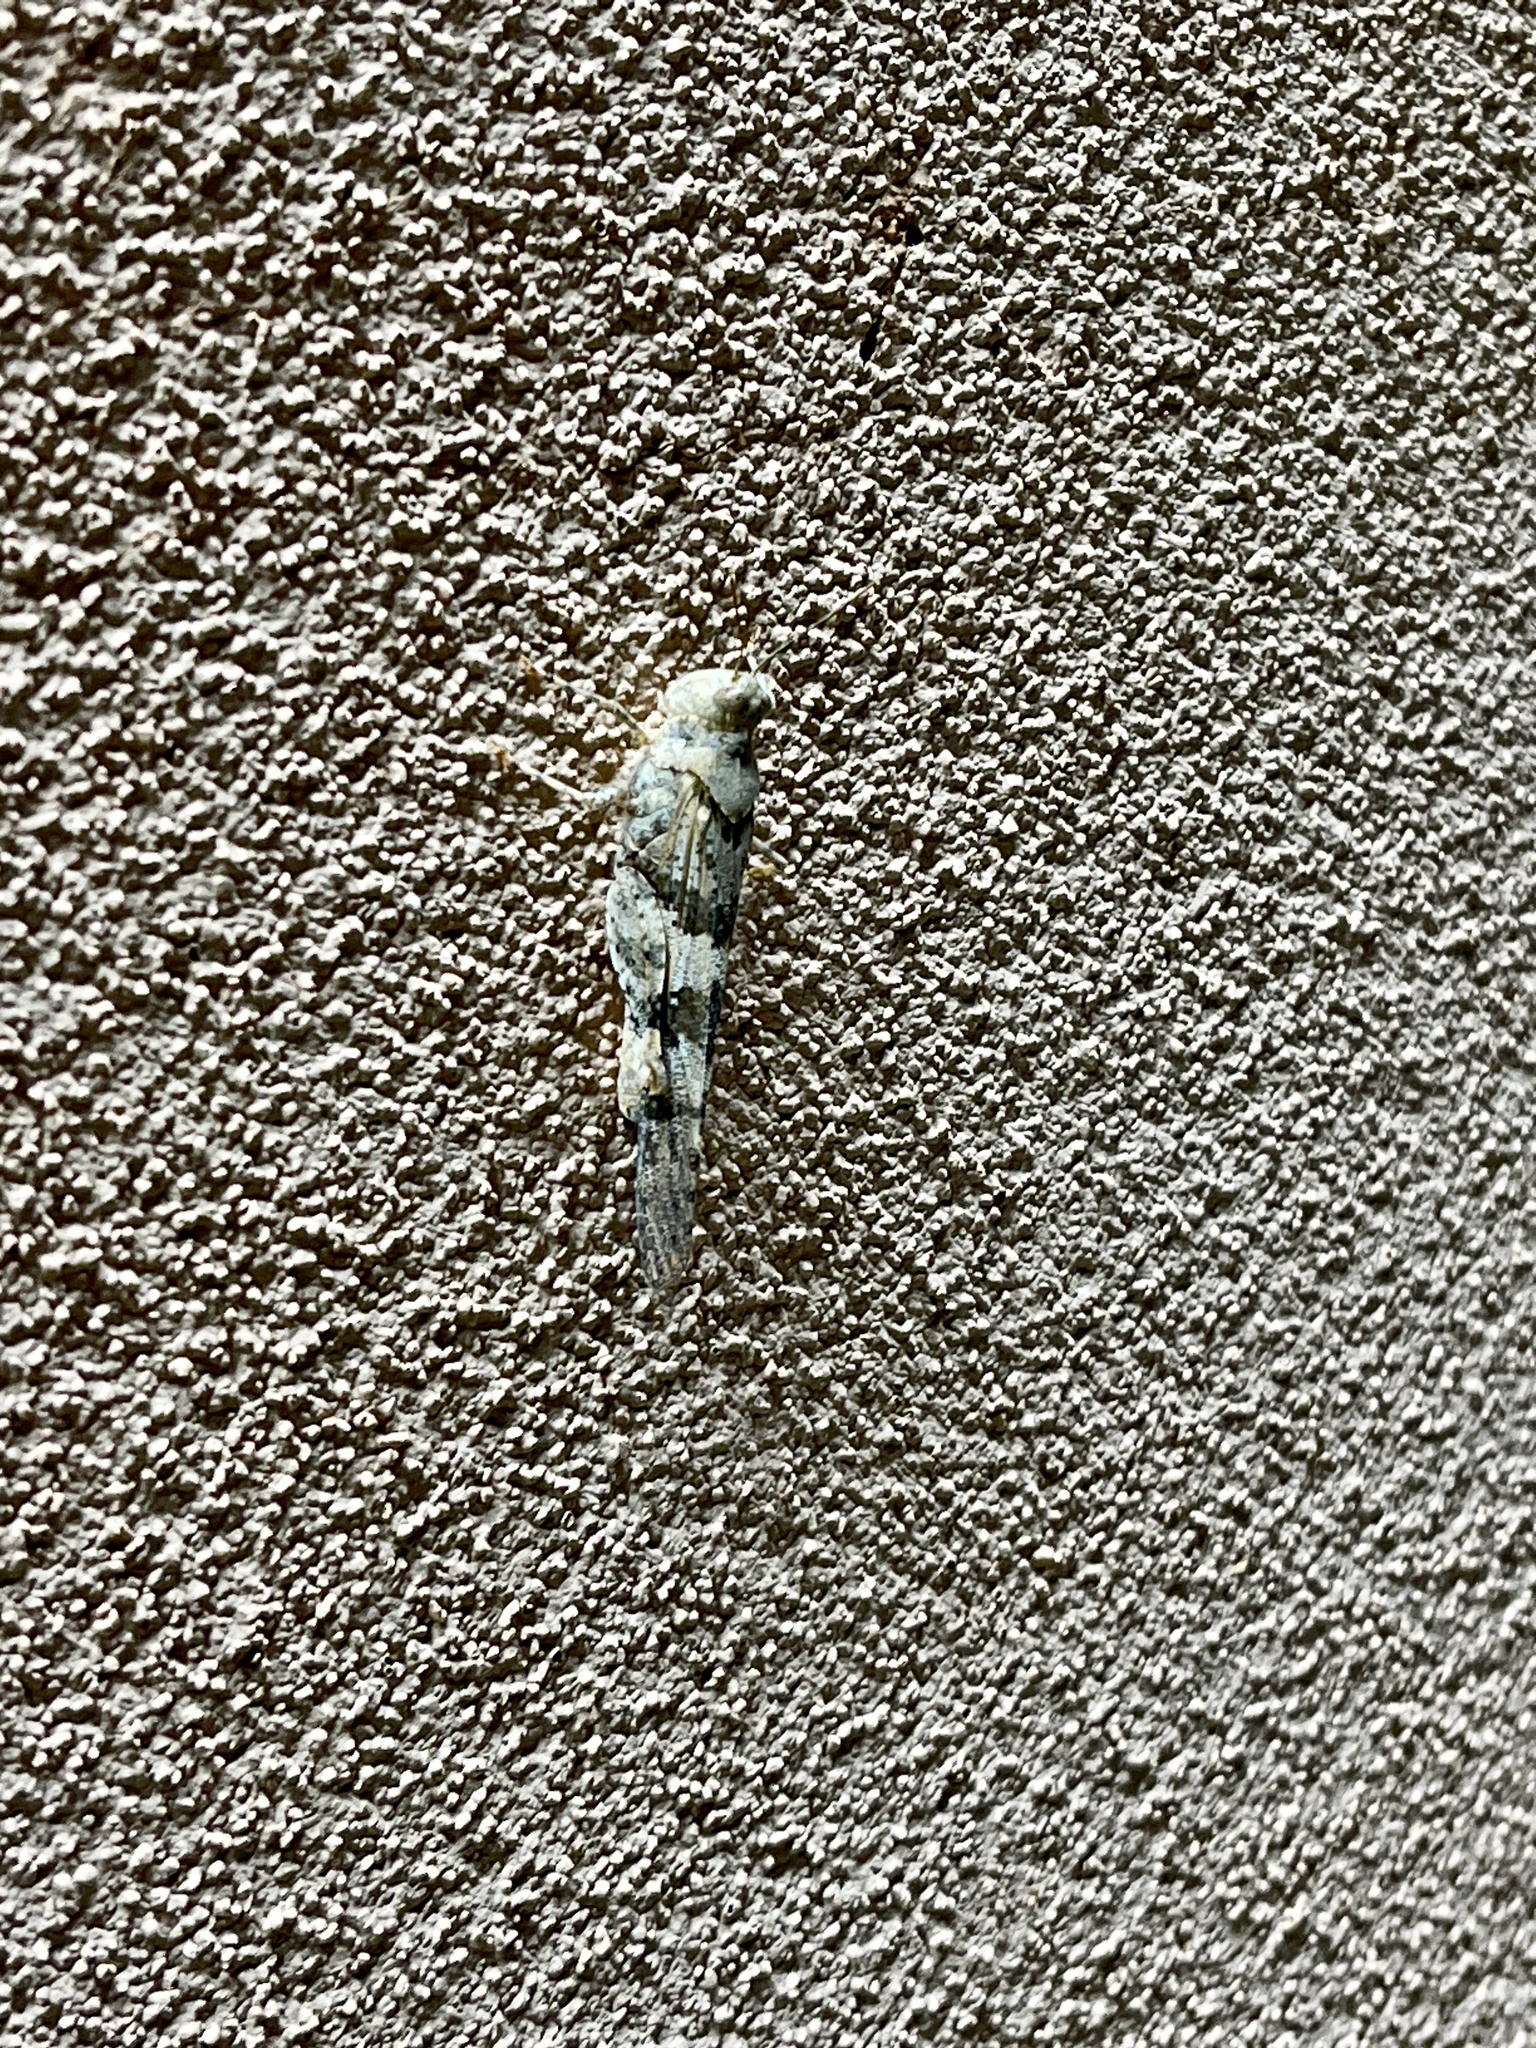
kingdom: Animalia
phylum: Arthropoda
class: Insecta
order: Orthoptera
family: Acrididae
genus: Trimerotropis
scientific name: Trimerotropis pallidipennis
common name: Pallid-winged grasshopper
